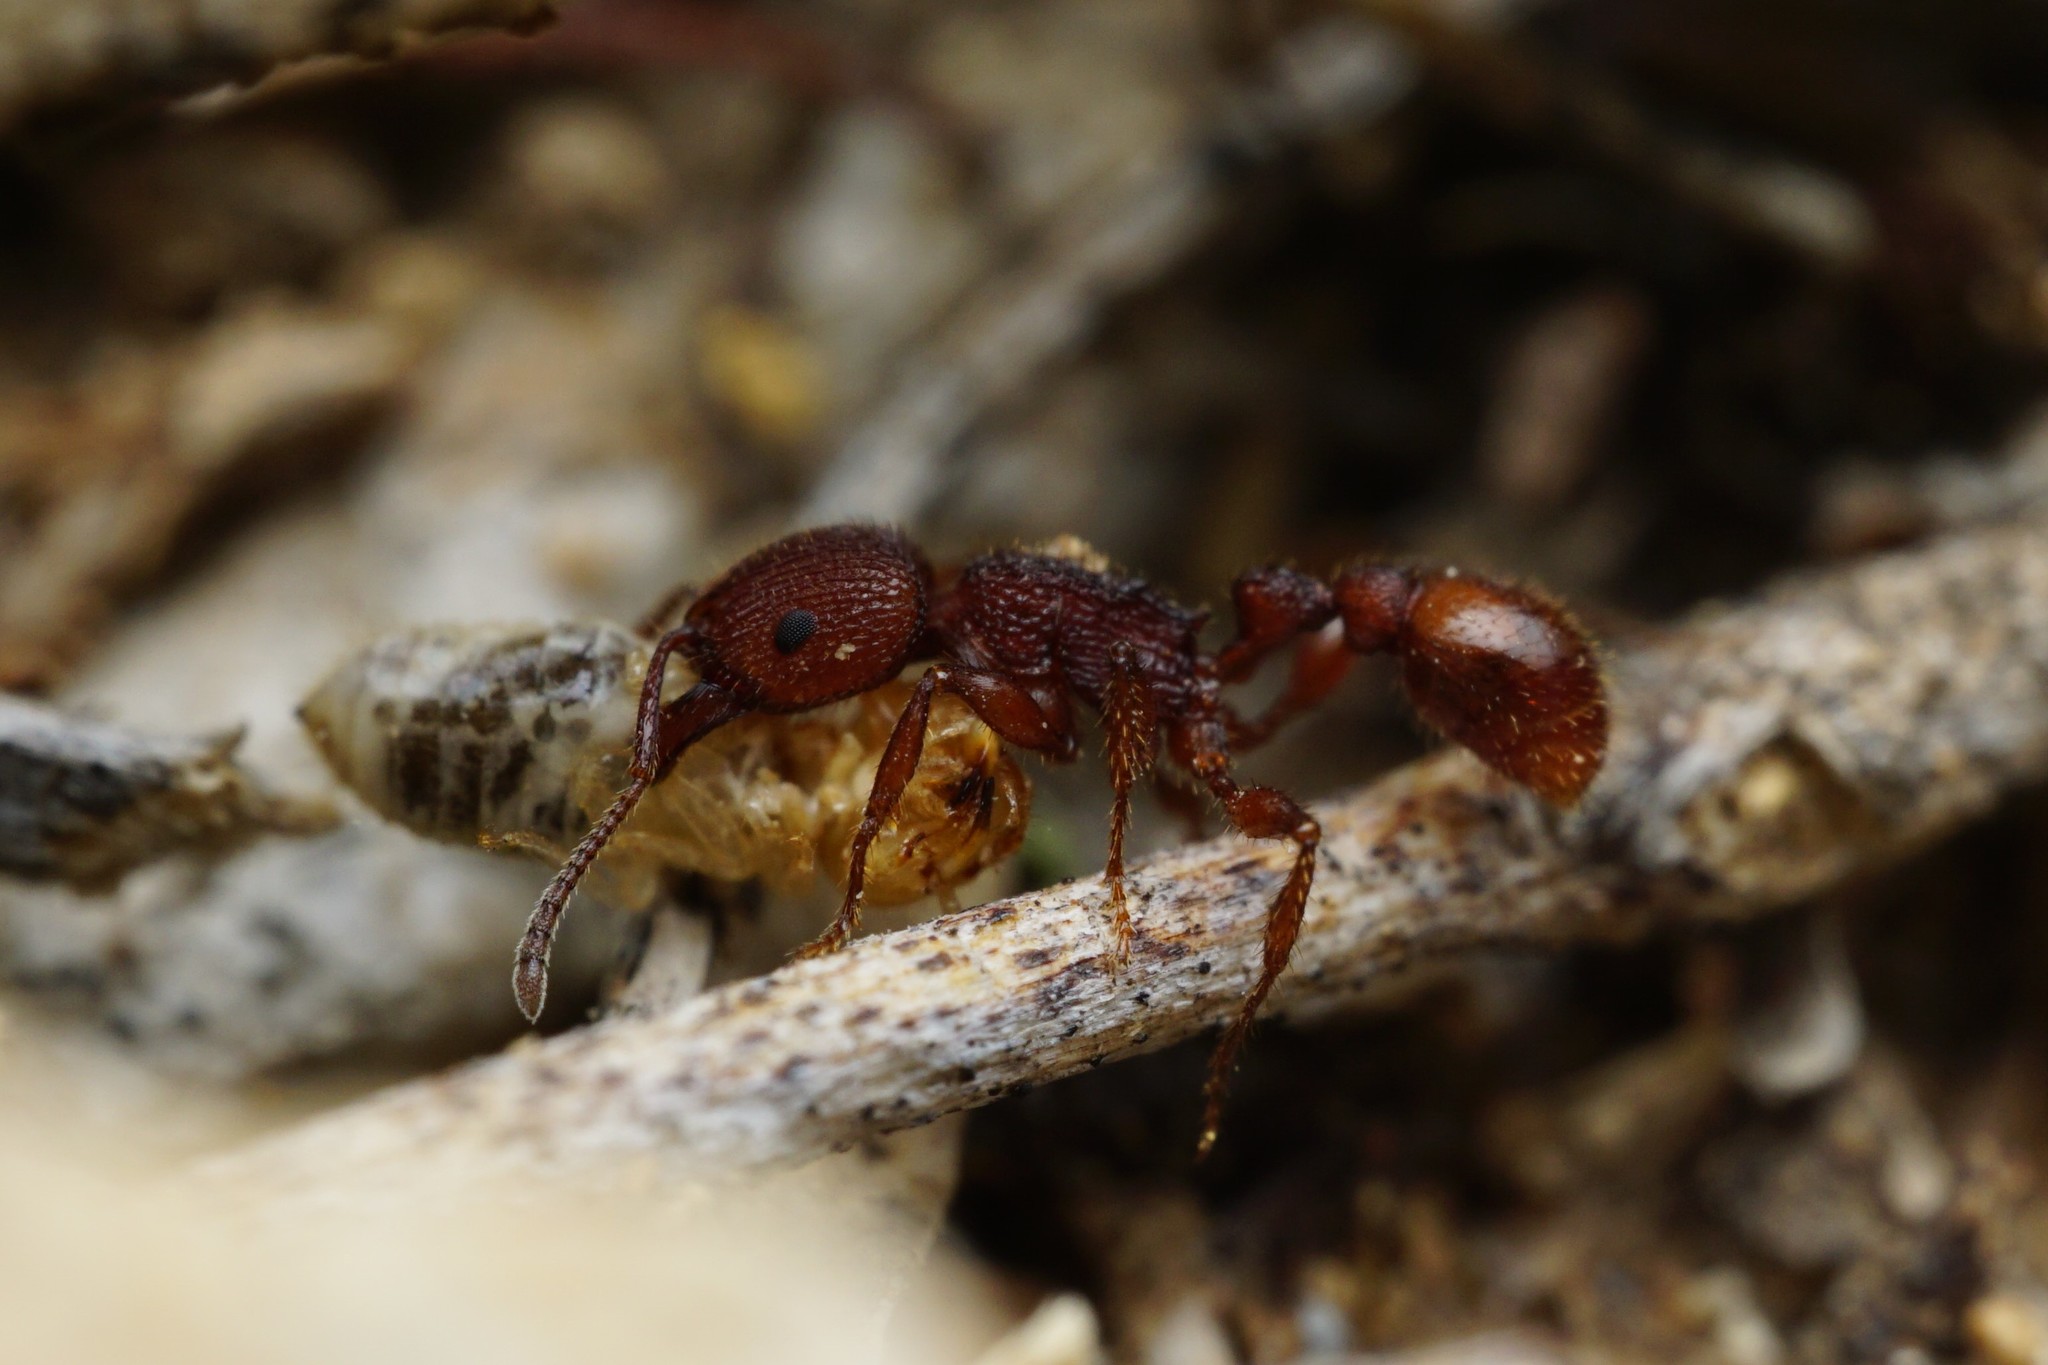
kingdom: Animalia
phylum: Arthropoda
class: Insecta
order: Hymenoptera
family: Formicidae
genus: Pogonomyrmex
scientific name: Pogonomyrmex imberbiculus
